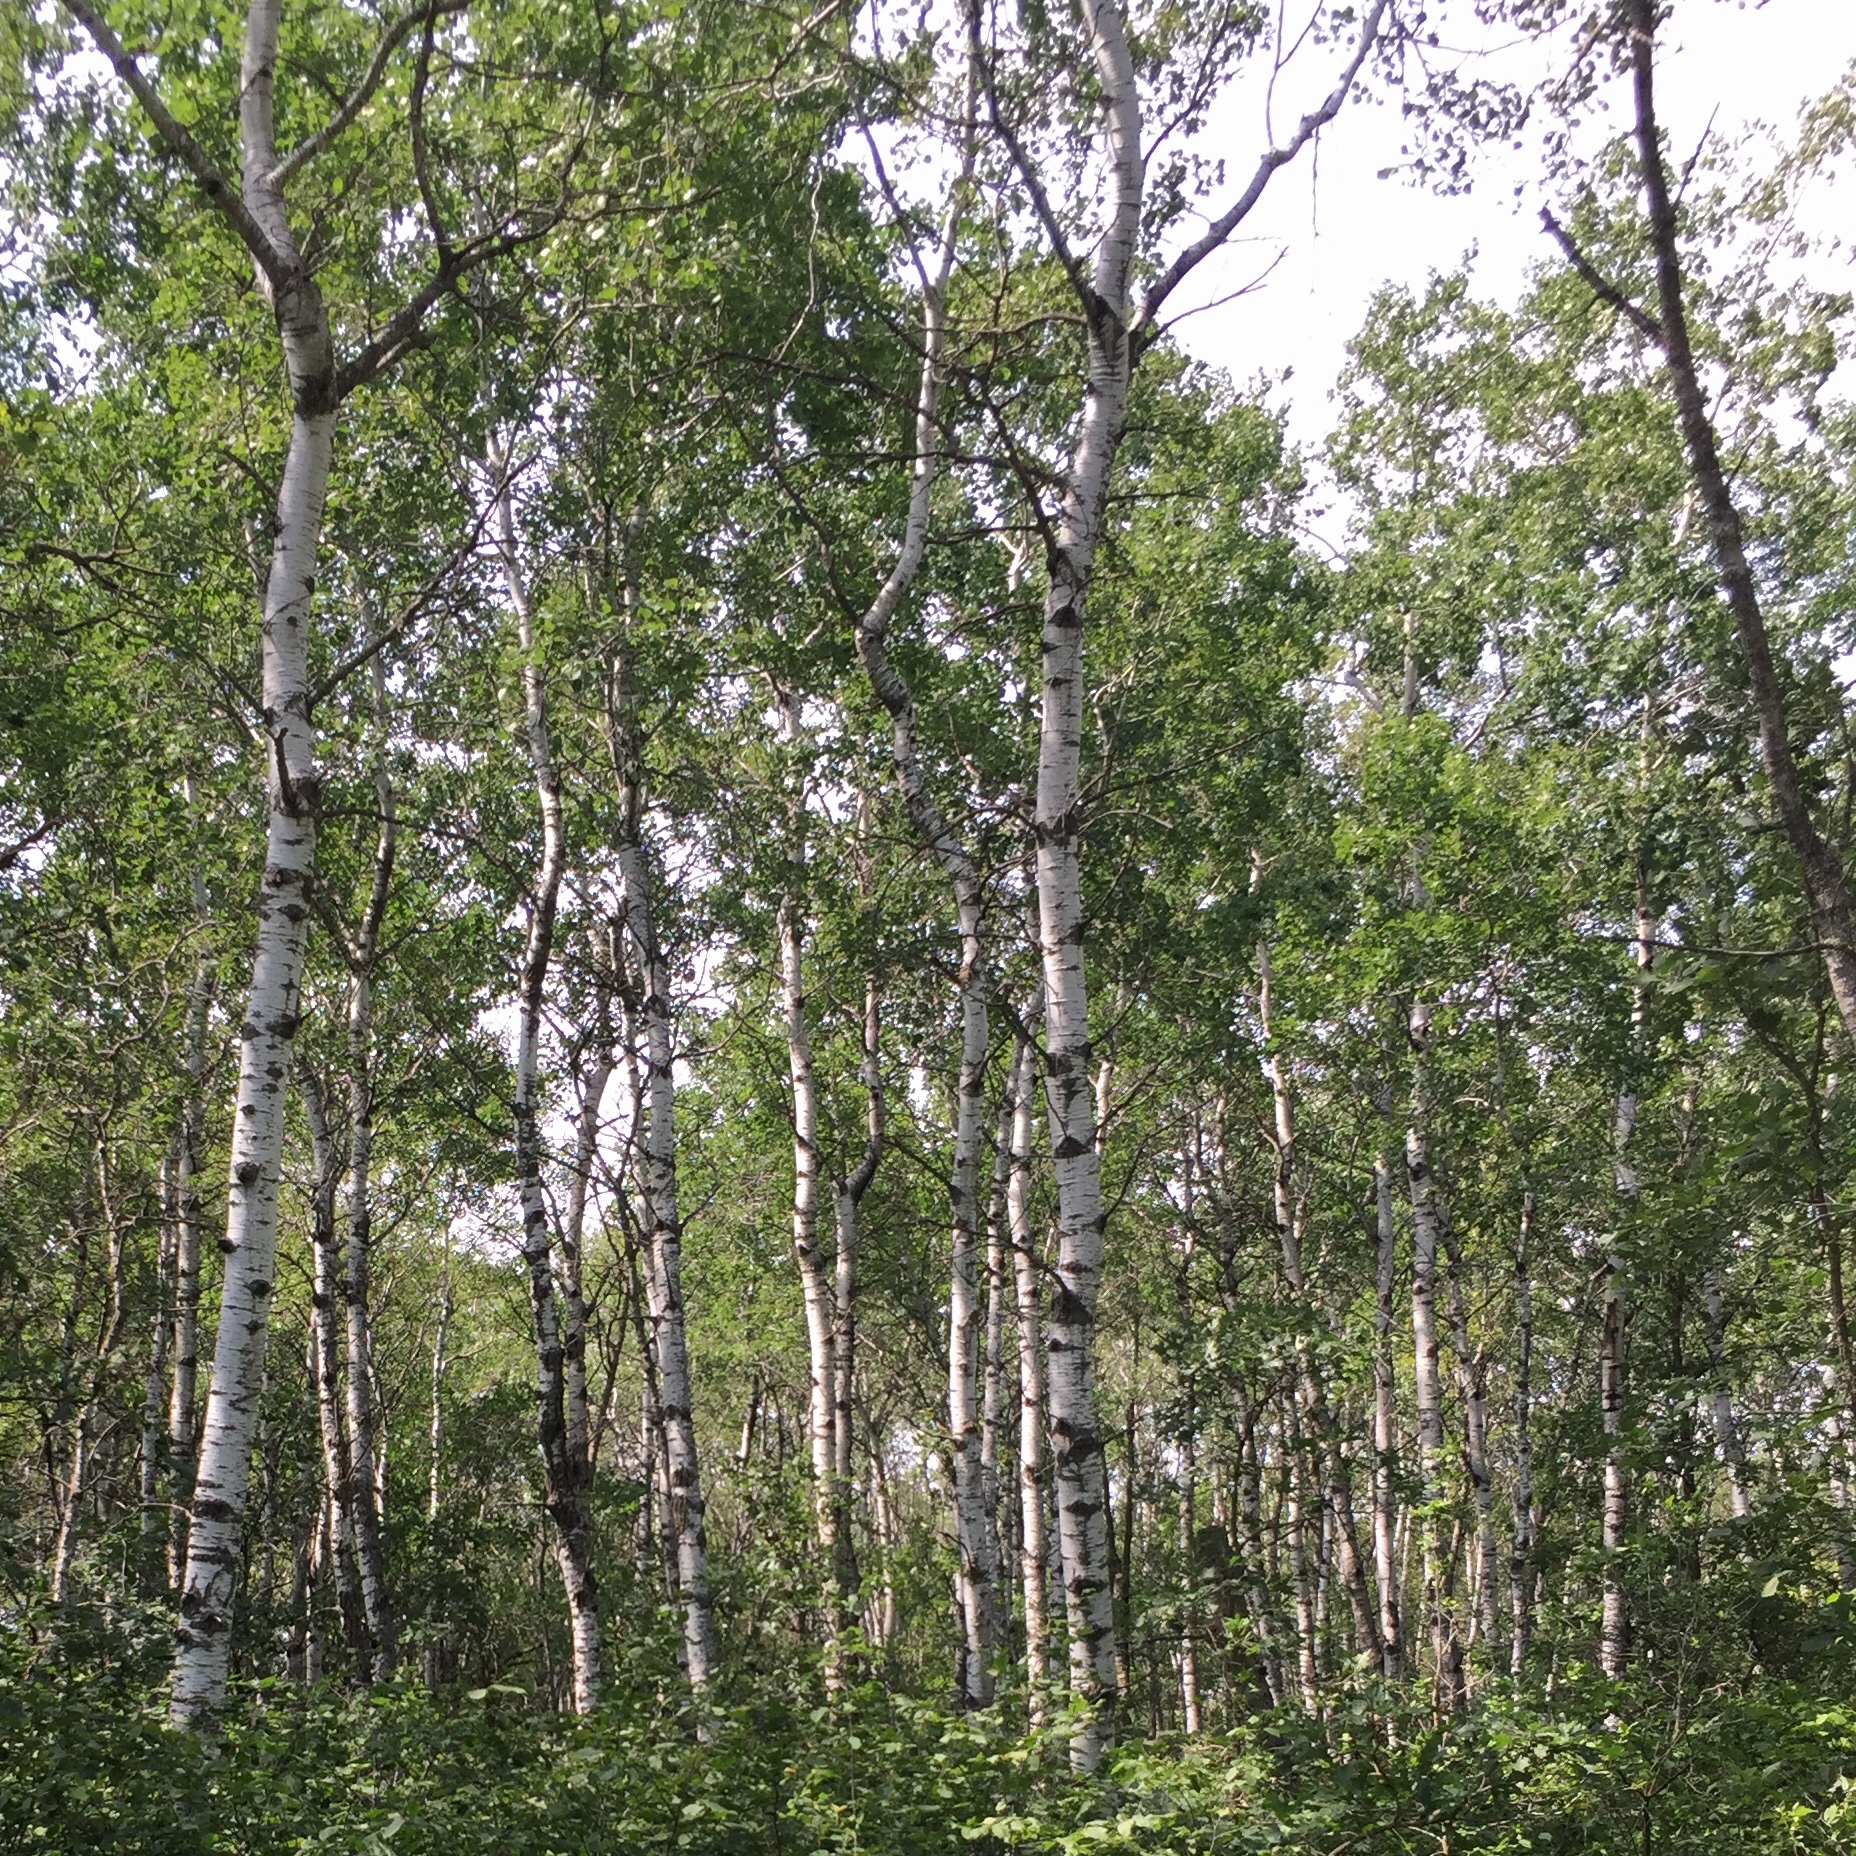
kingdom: Plantae
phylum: Tracheophyta
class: Magnoliopsida
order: Malpighiales
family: Salicaceae
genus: Populus
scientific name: Populus tremuloides
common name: Quaking aspen
